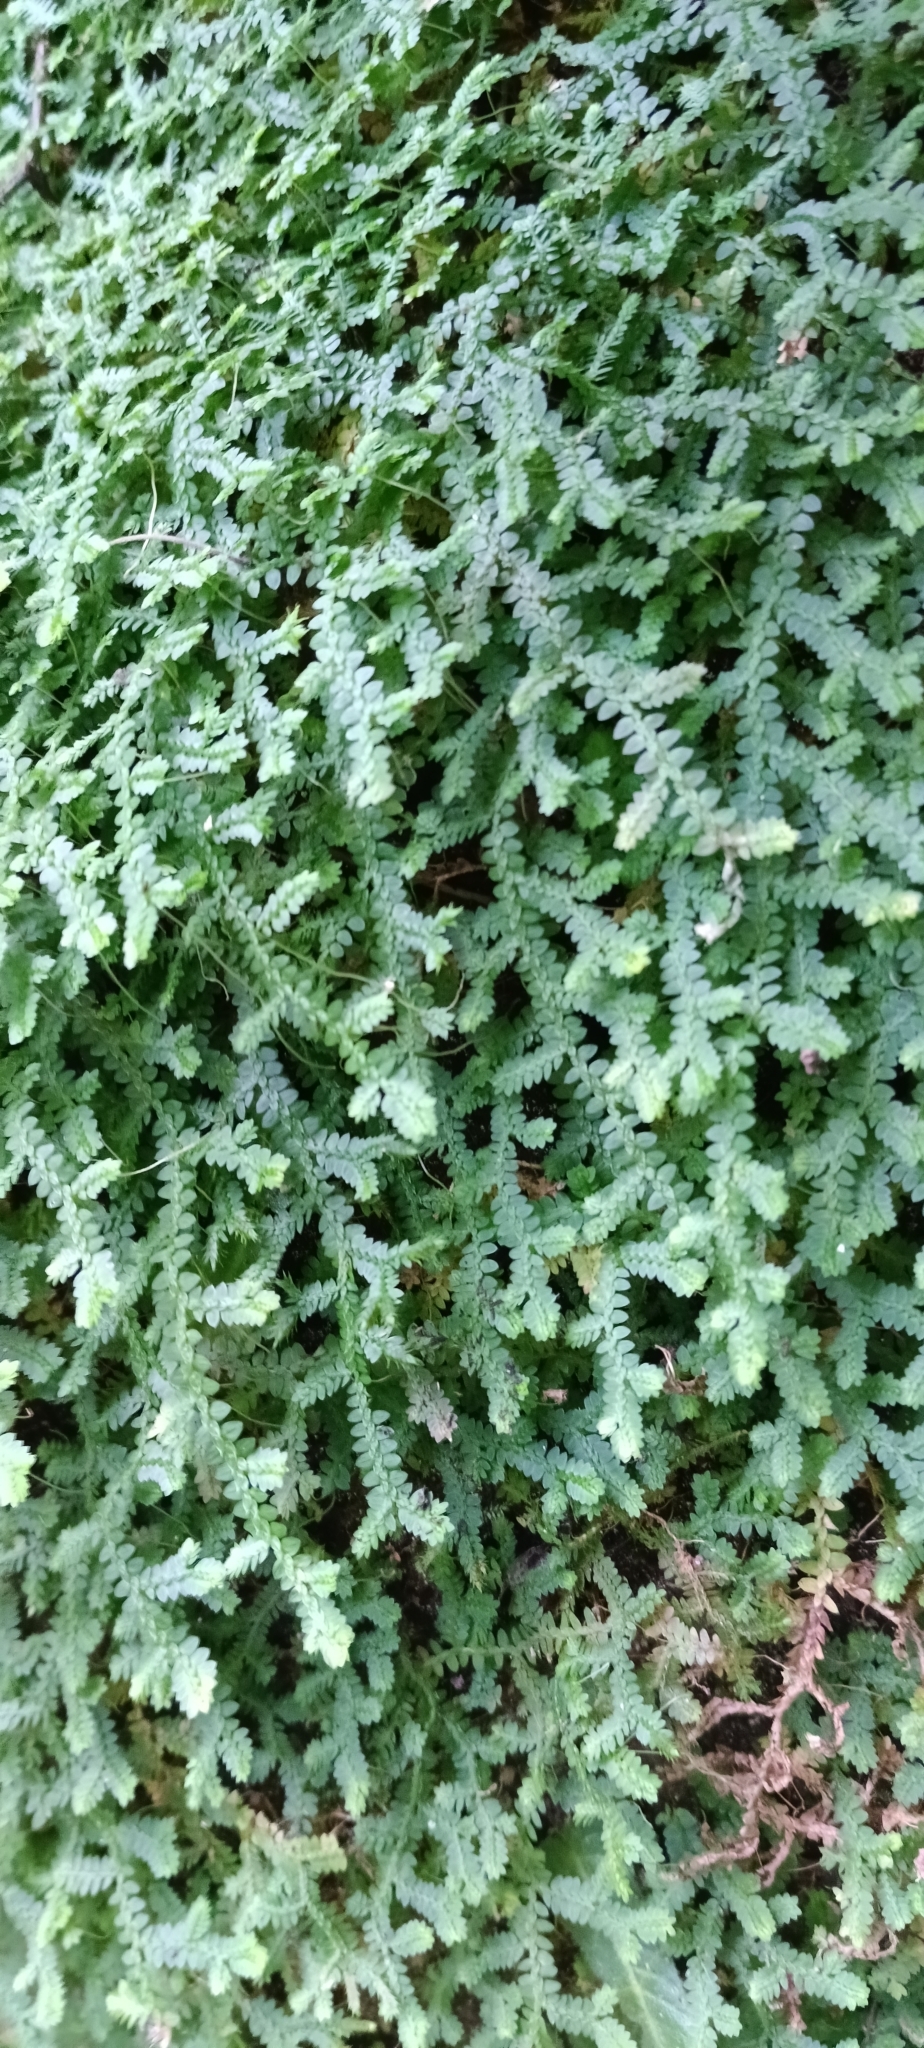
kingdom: Plantae
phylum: Tracheophyta
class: Lycopodiopsida
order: Selaginellales
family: Selaginellaceae
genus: Selaginella
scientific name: Selaginella kraussiana
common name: Krauss' spikemoss
